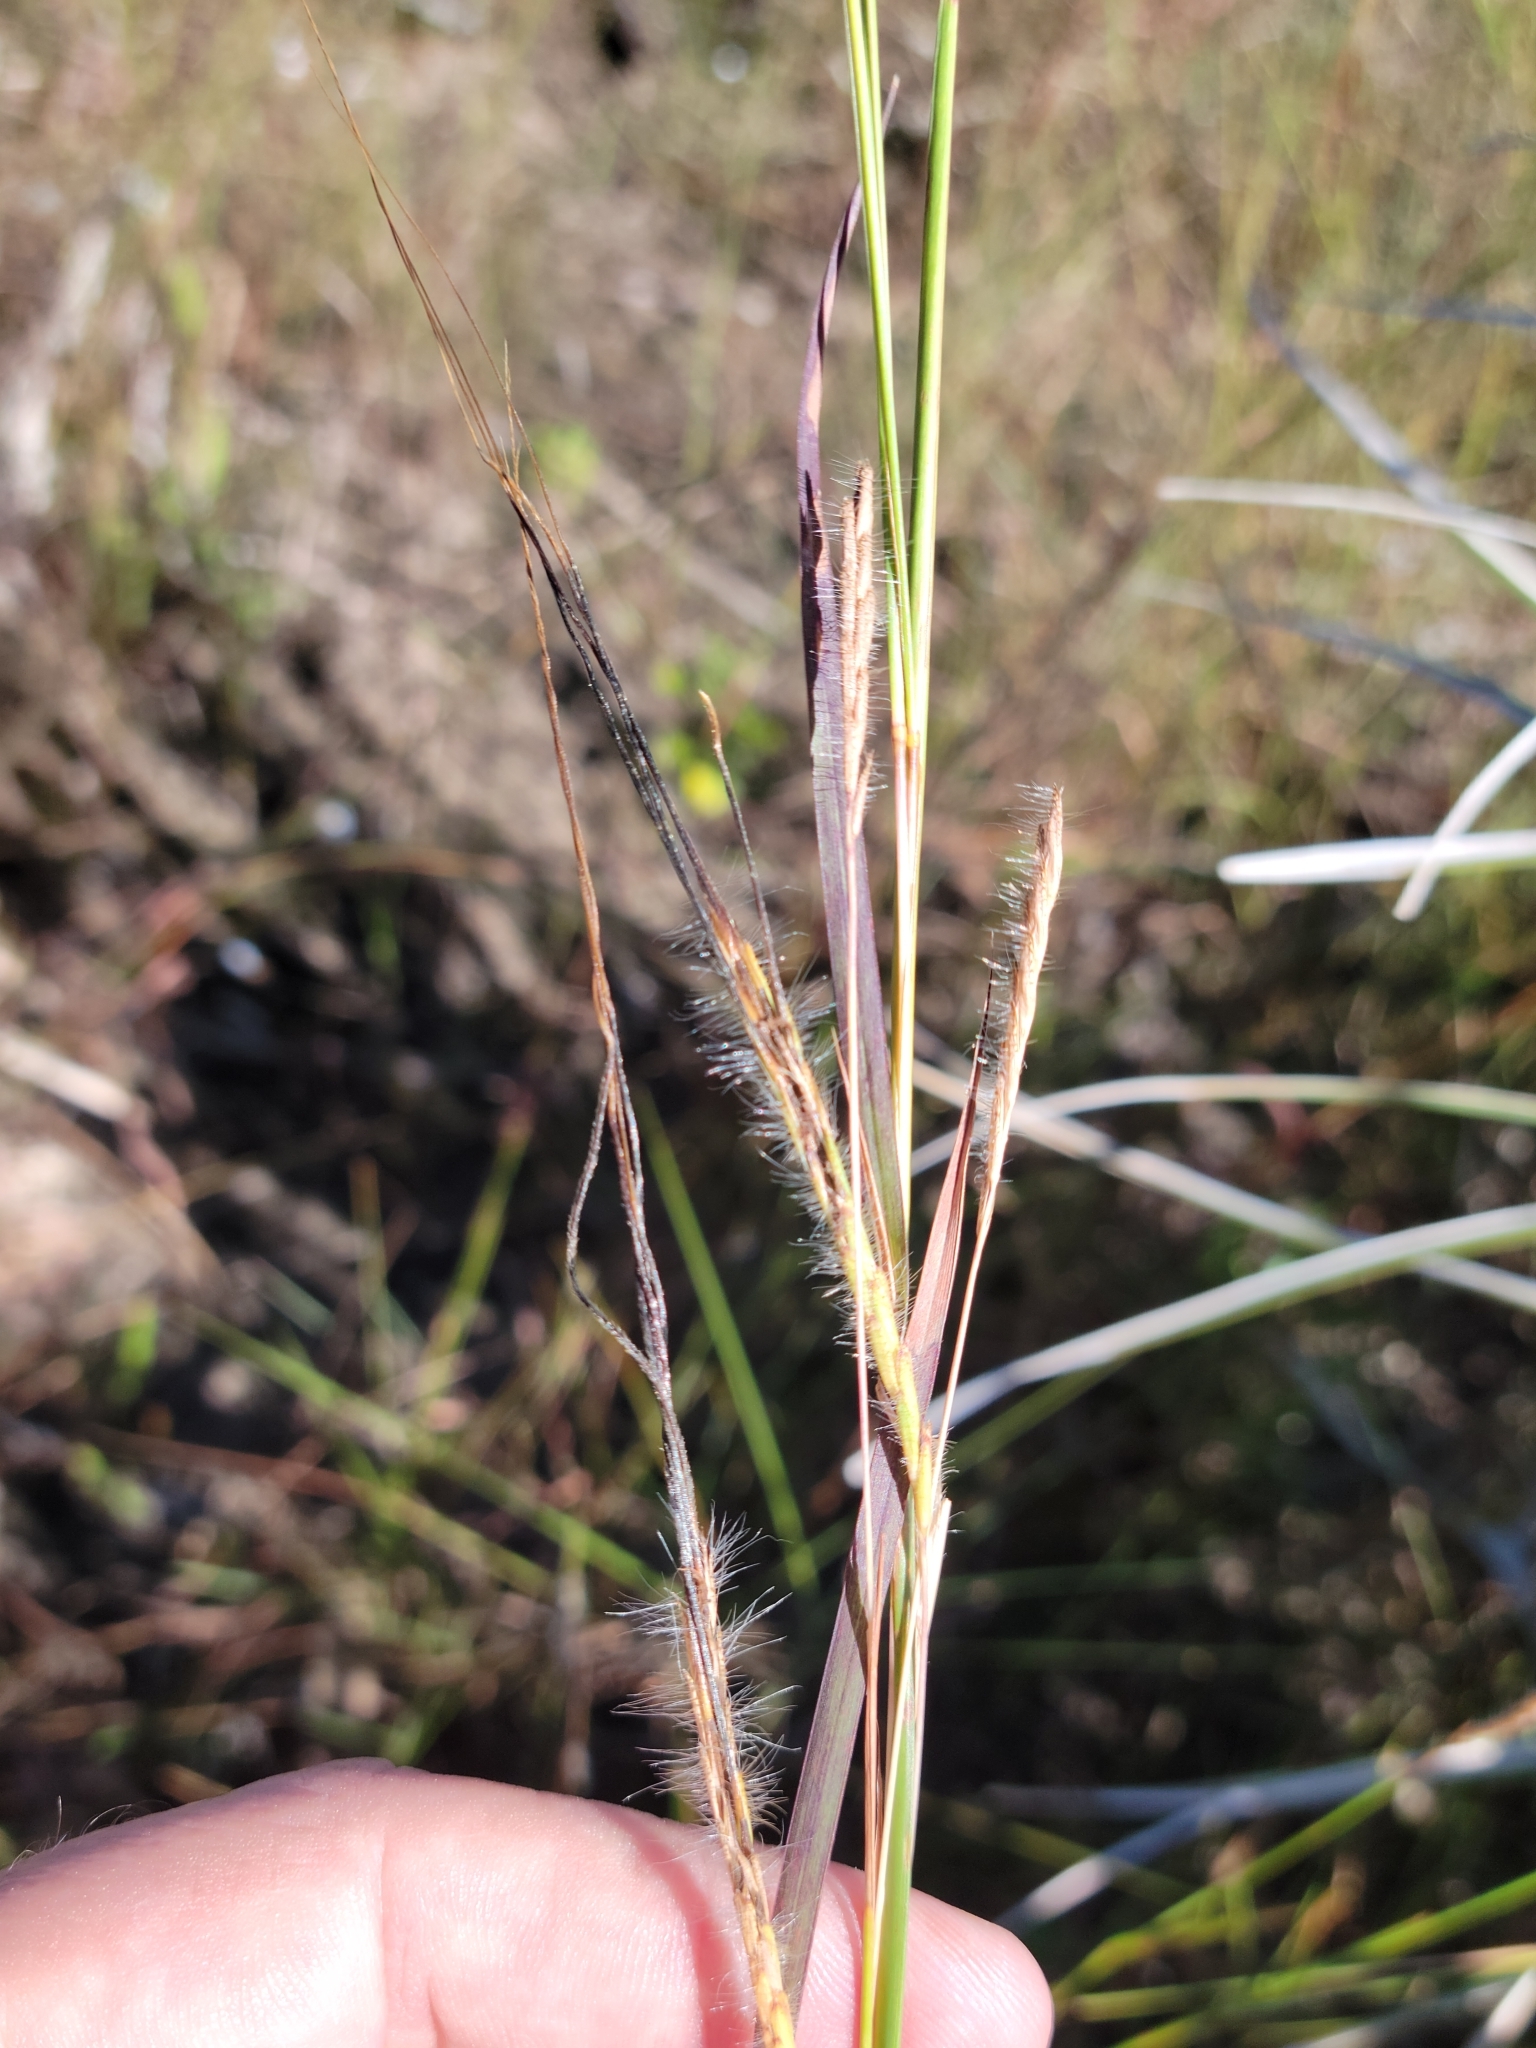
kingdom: Plantae
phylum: Tracheophyta
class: Liliopsida
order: Poales
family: Poaceae
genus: Heteropogon
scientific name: Heteropogon contortus
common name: Tanglehead
